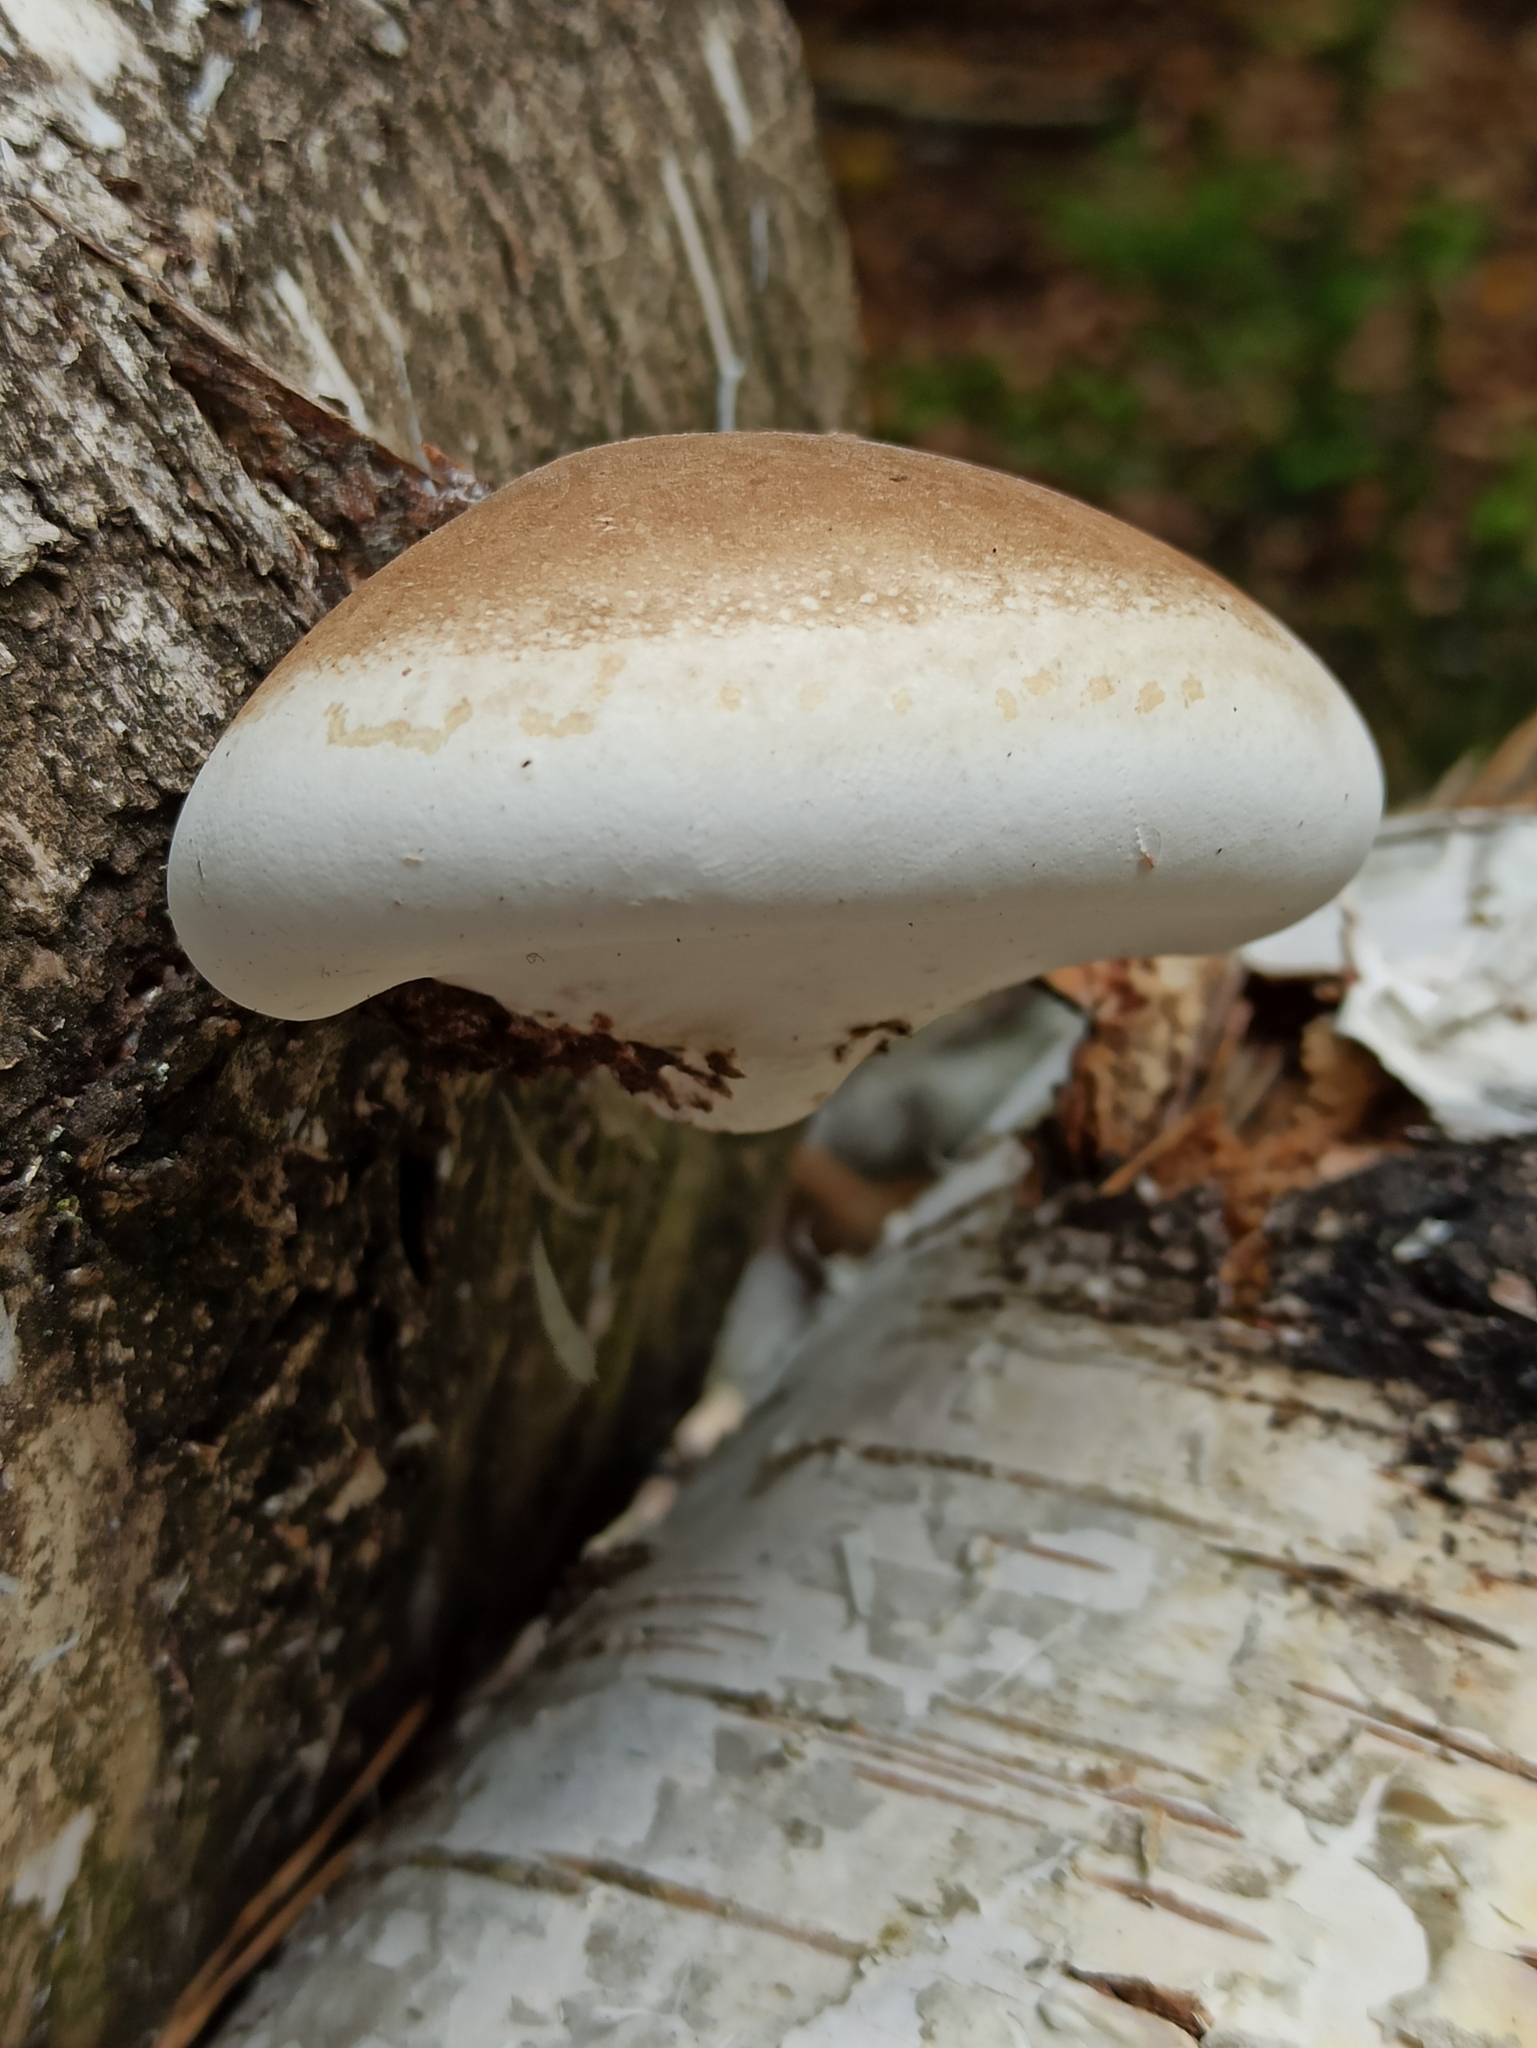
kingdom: Fungi
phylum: Basidiomycota
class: Agaricomycetes
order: Polyporales
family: Fomitopsidaceae
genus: Fomitopsis
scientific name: Fomitopsis betulina
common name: Birch polypore
